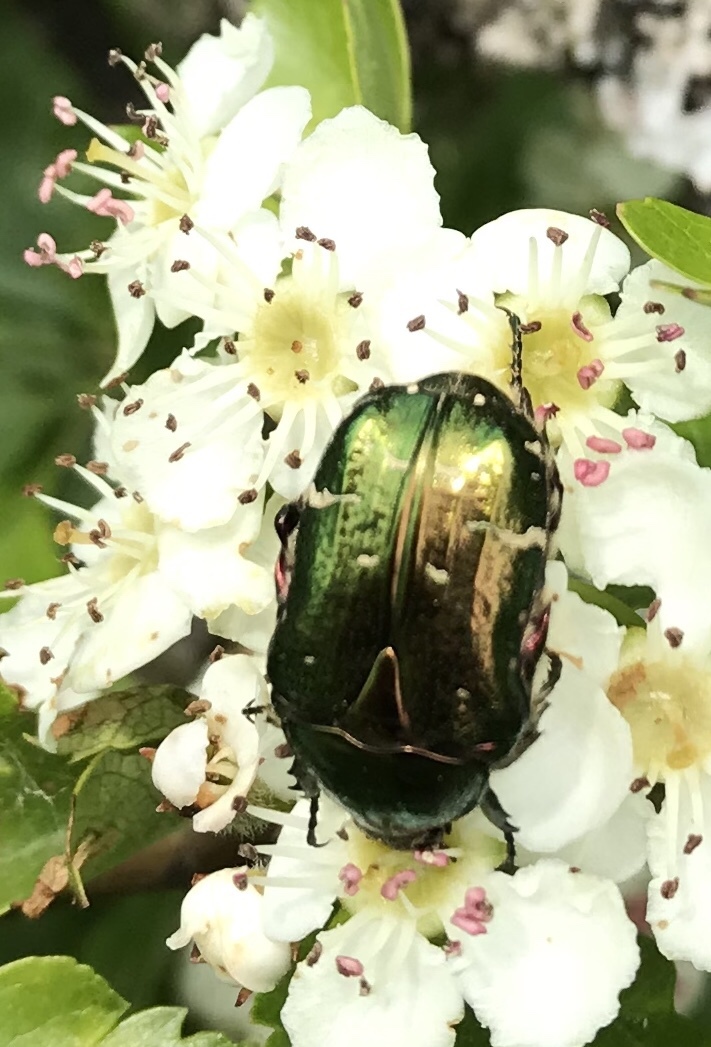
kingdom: Animalia
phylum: Arthropoda
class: Insecta
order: Coleoptera
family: Scarabaeidae
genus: Cetonia
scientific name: Cetonia aurata
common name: Rose chafer
